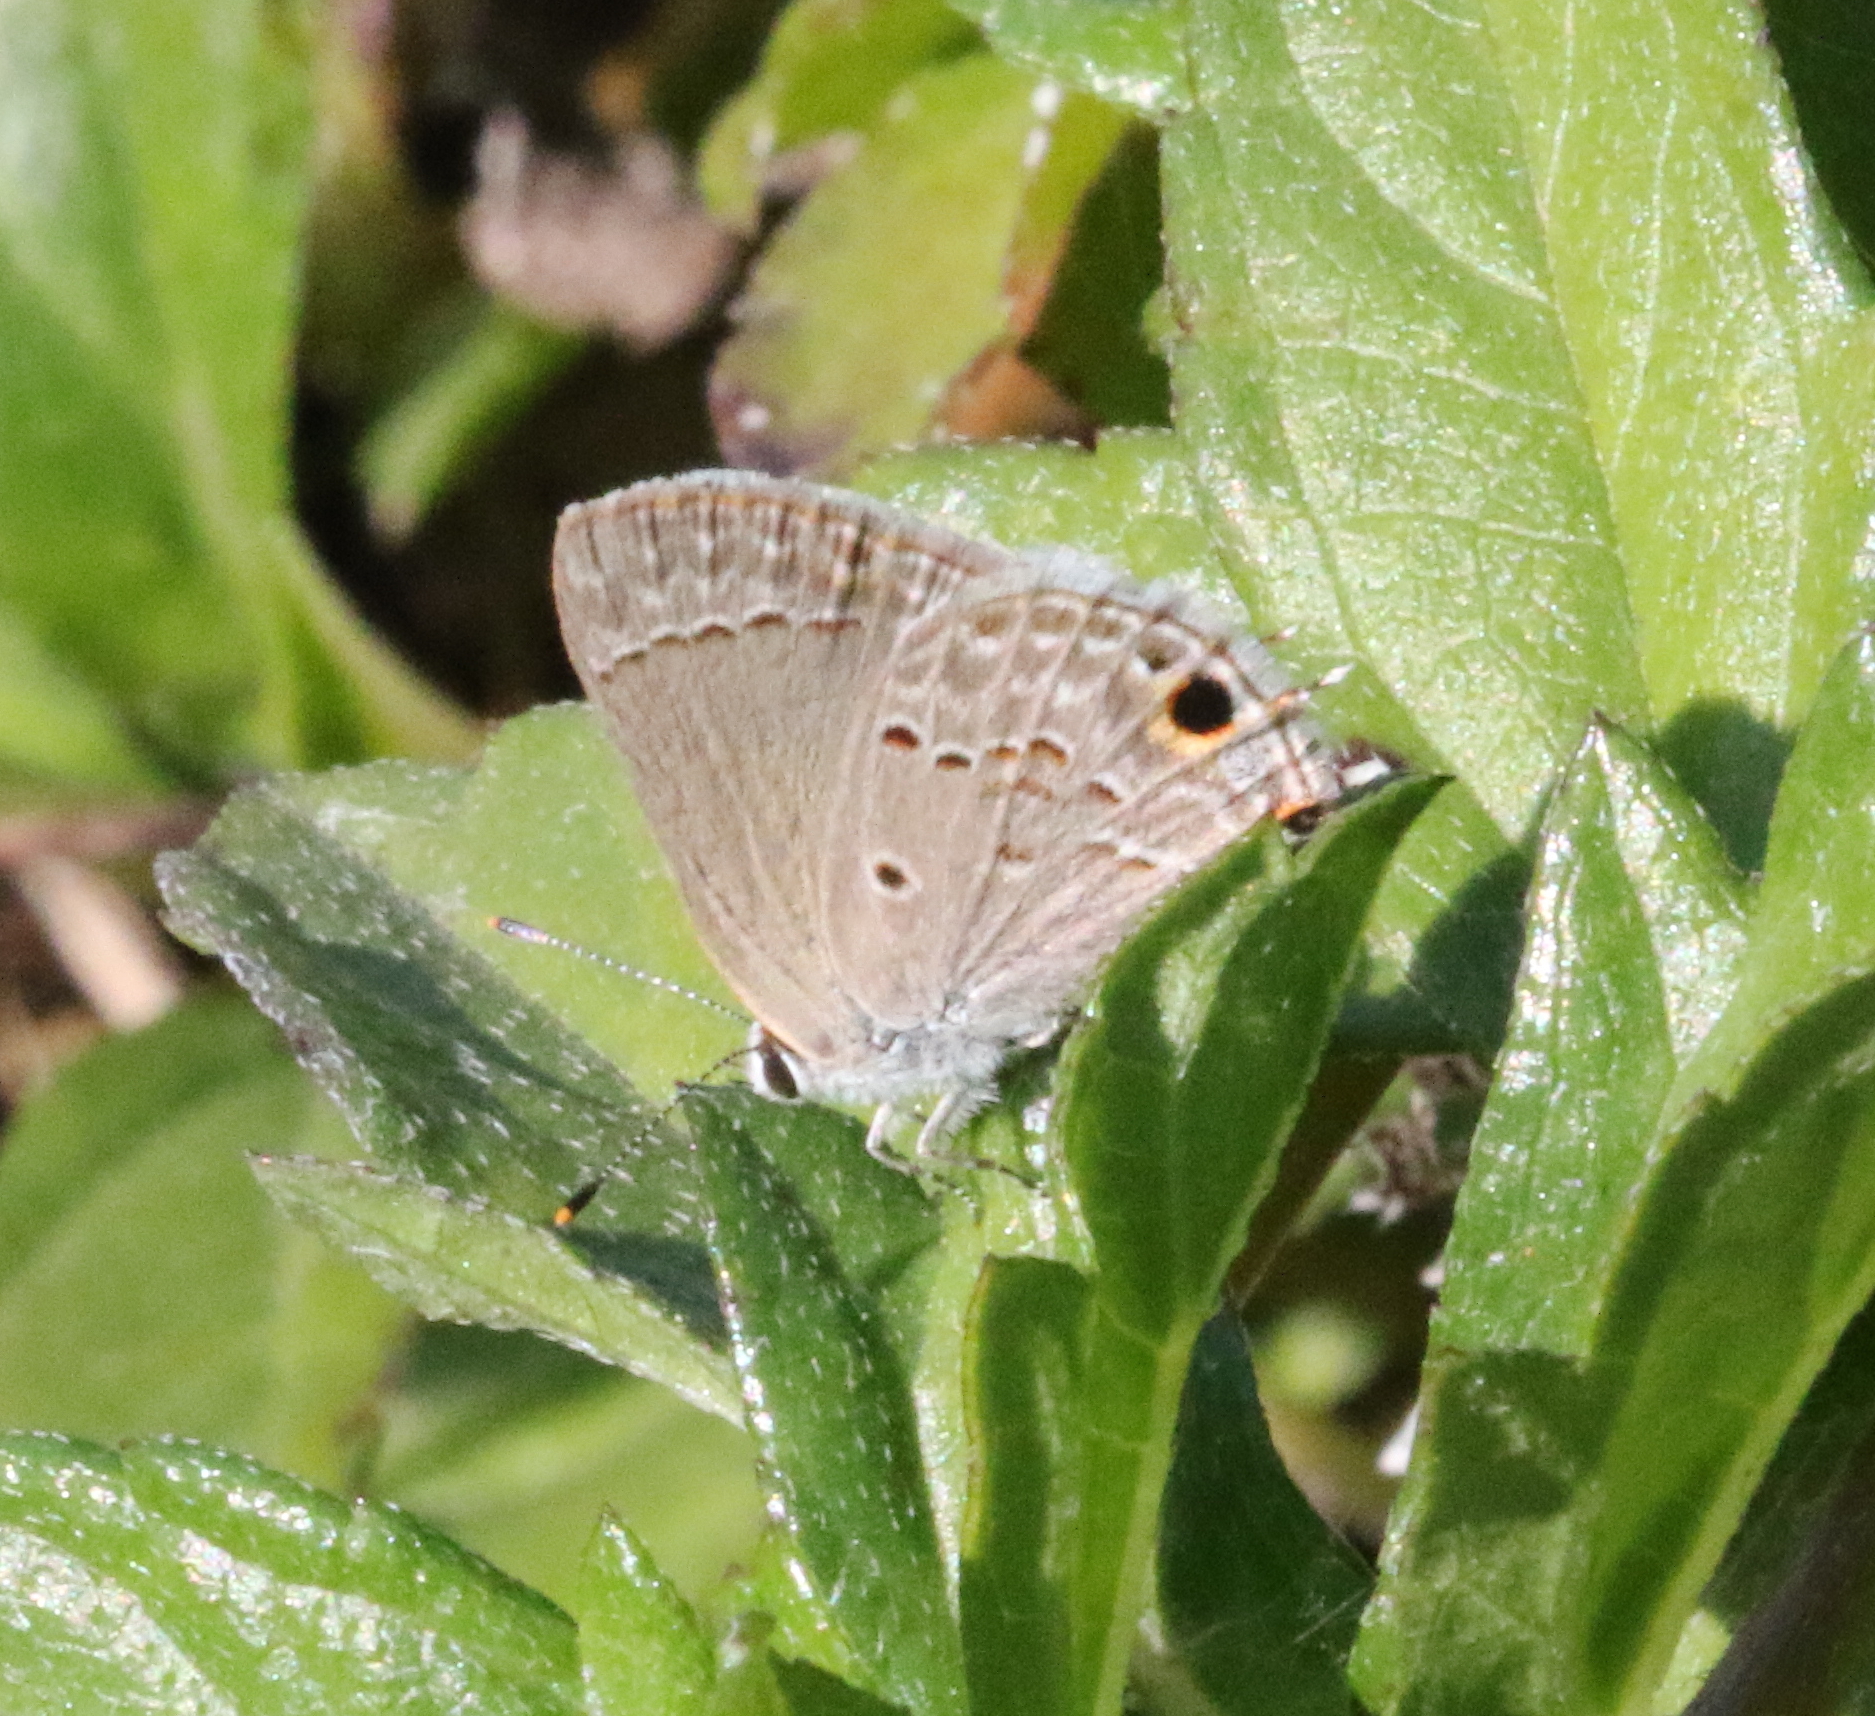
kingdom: Animalia
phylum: Arthropoda
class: Insecta
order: Lepidoptera
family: Lycaenidae
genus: Callicista
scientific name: Callicista columella
